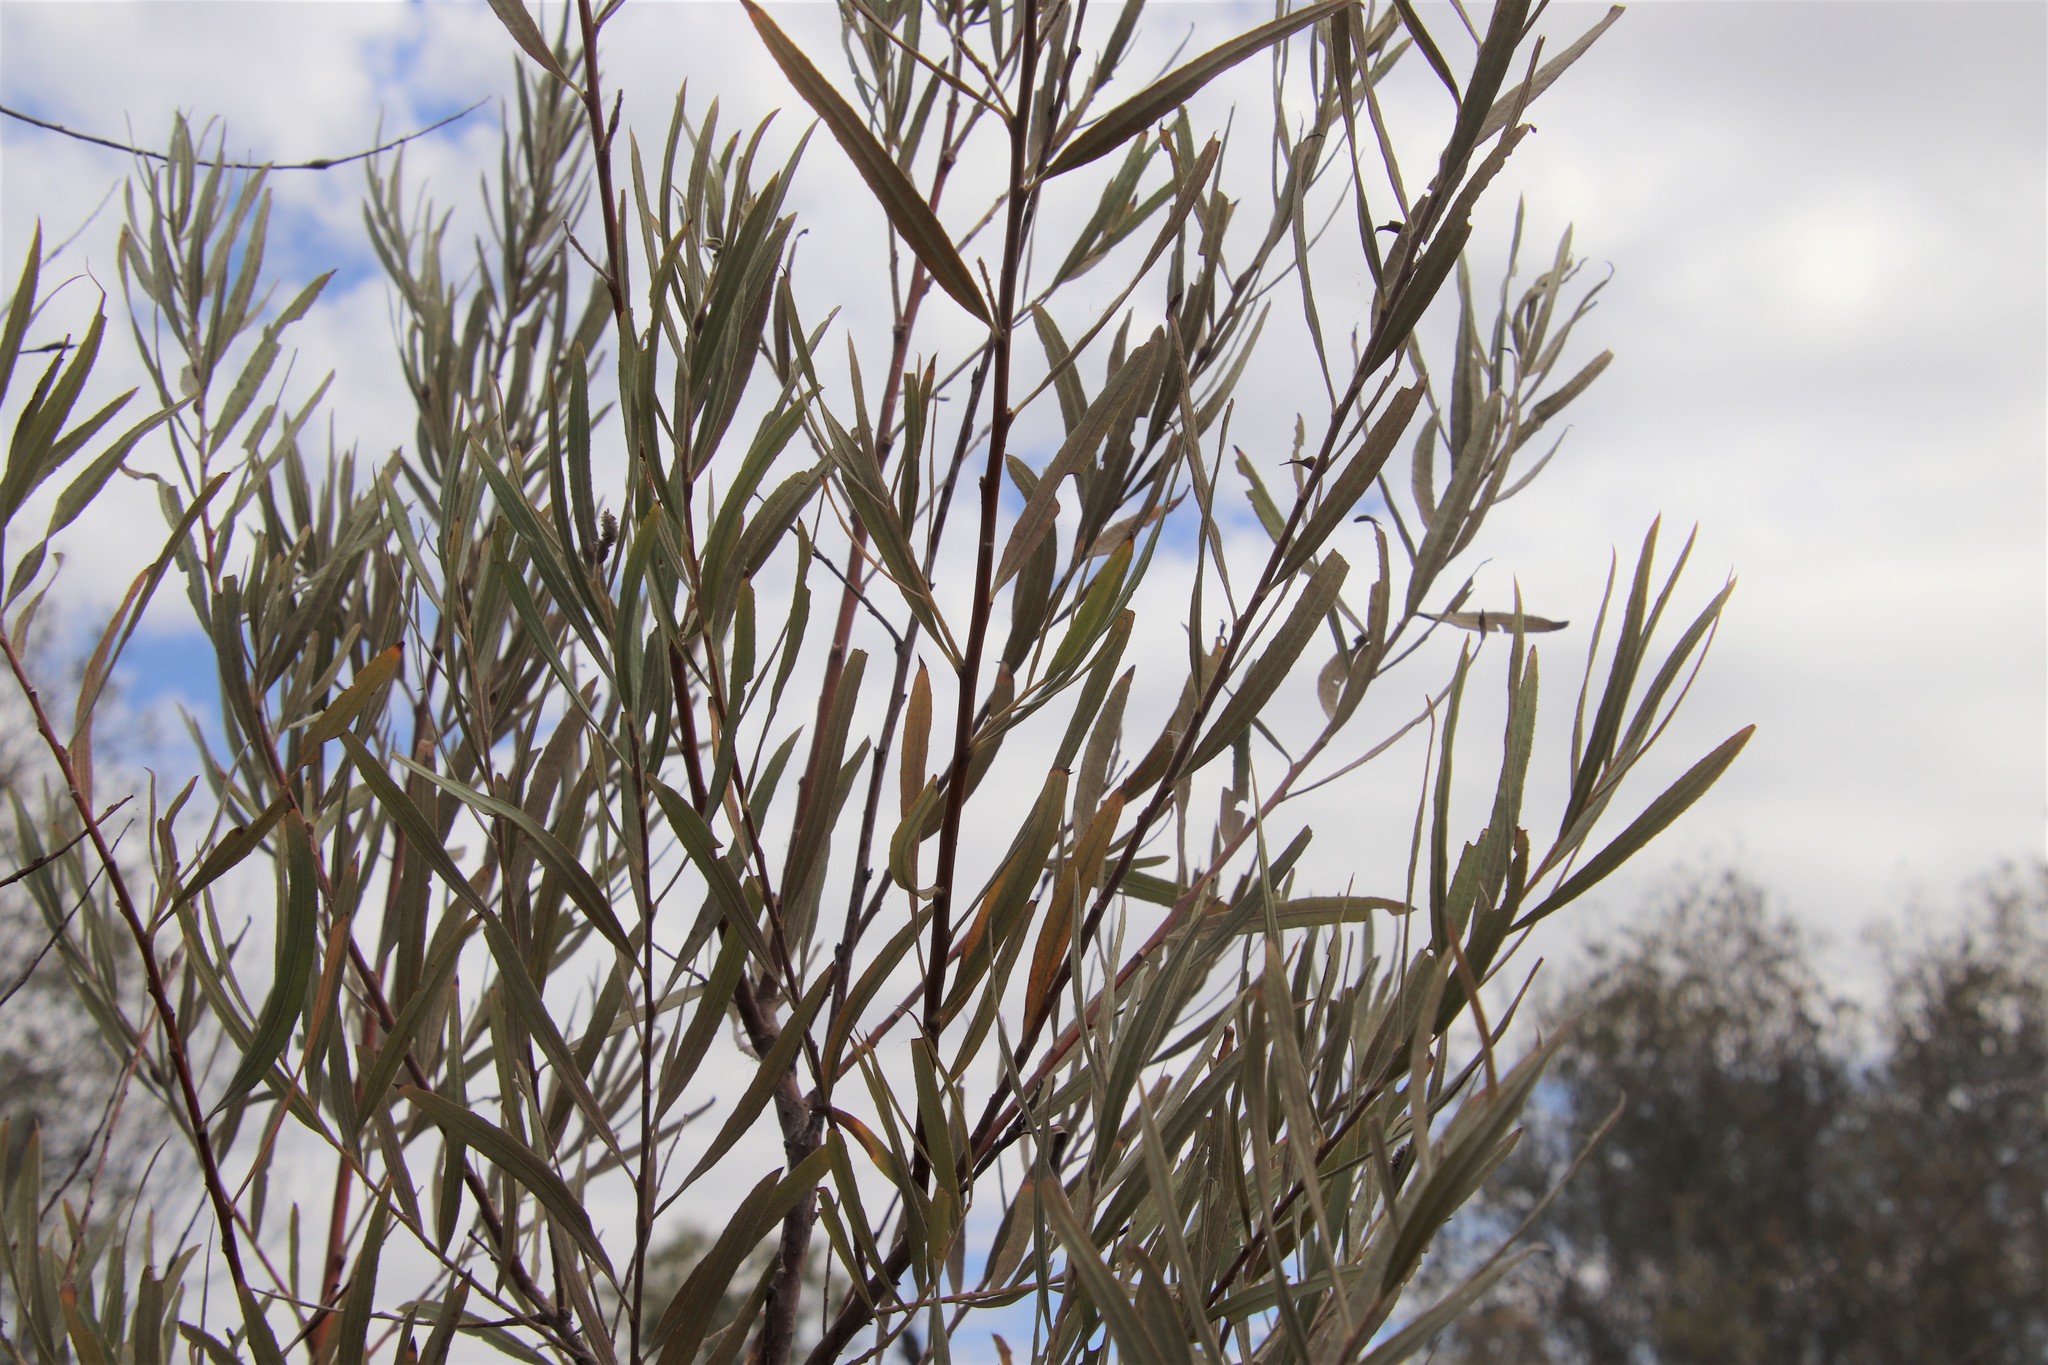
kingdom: Plantae
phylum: Tracheophyta
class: Magnoliopsida
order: Malpighiales
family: Salicaceae
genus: Salix
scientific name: Salix exigua
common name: Coyote willow
